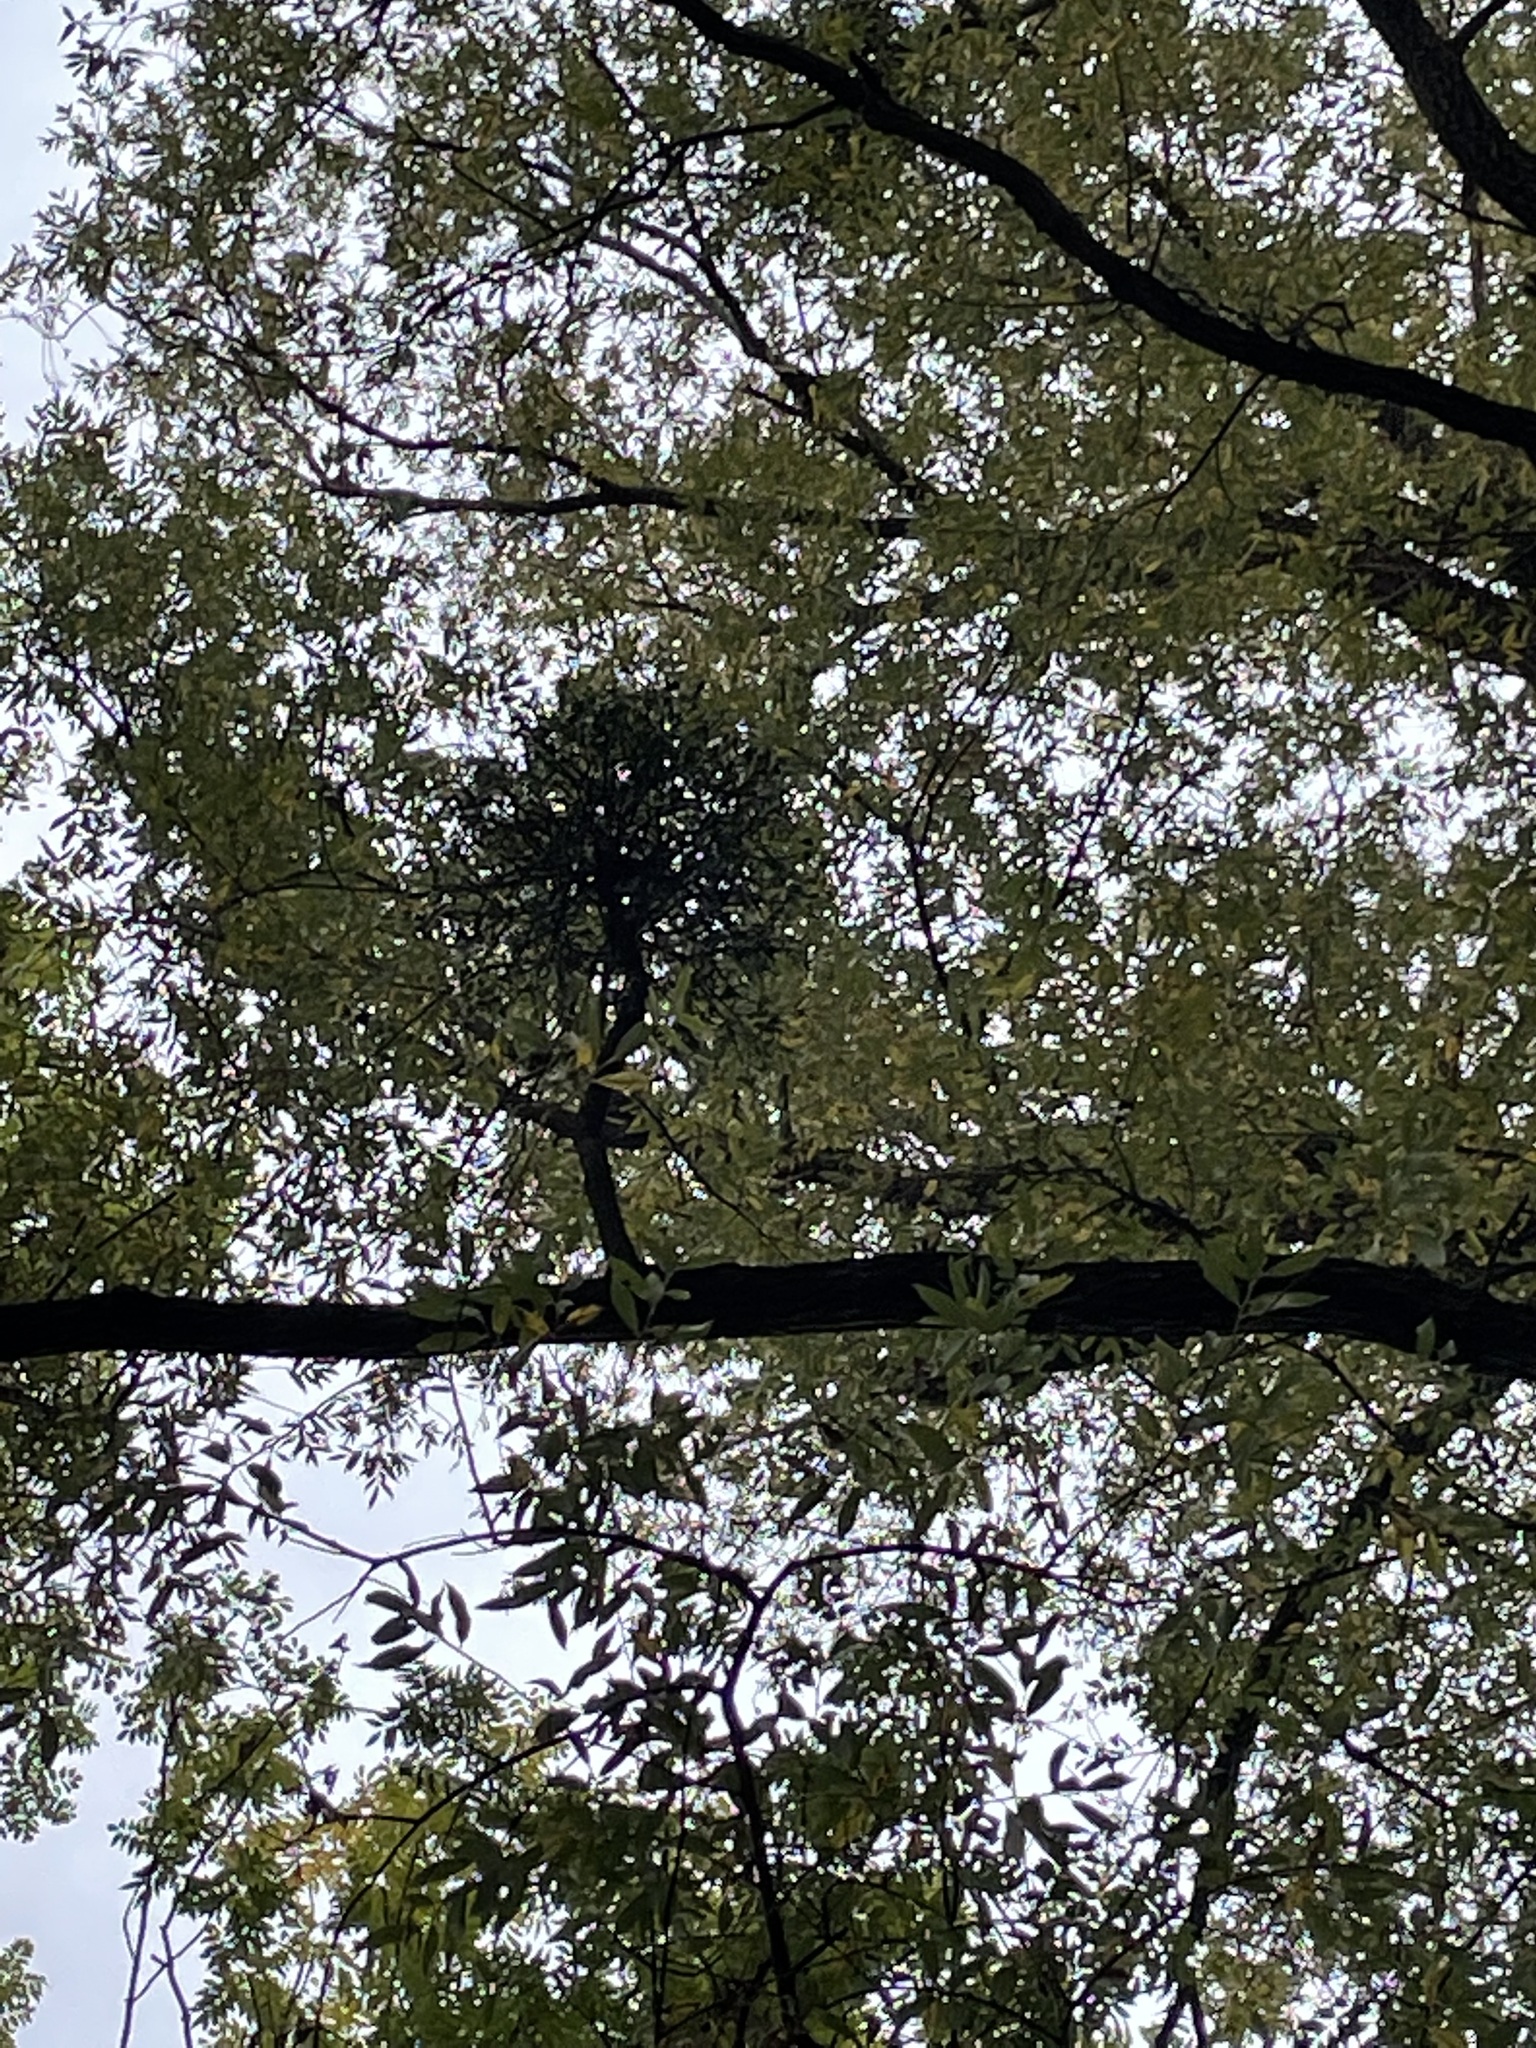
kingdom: Plantae
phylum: Tracheophyta
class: Magnoliopsida
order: Lamiales
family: Oleaceae
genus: Fraxinus
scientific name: Fraxinus excelsior
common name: European ash
